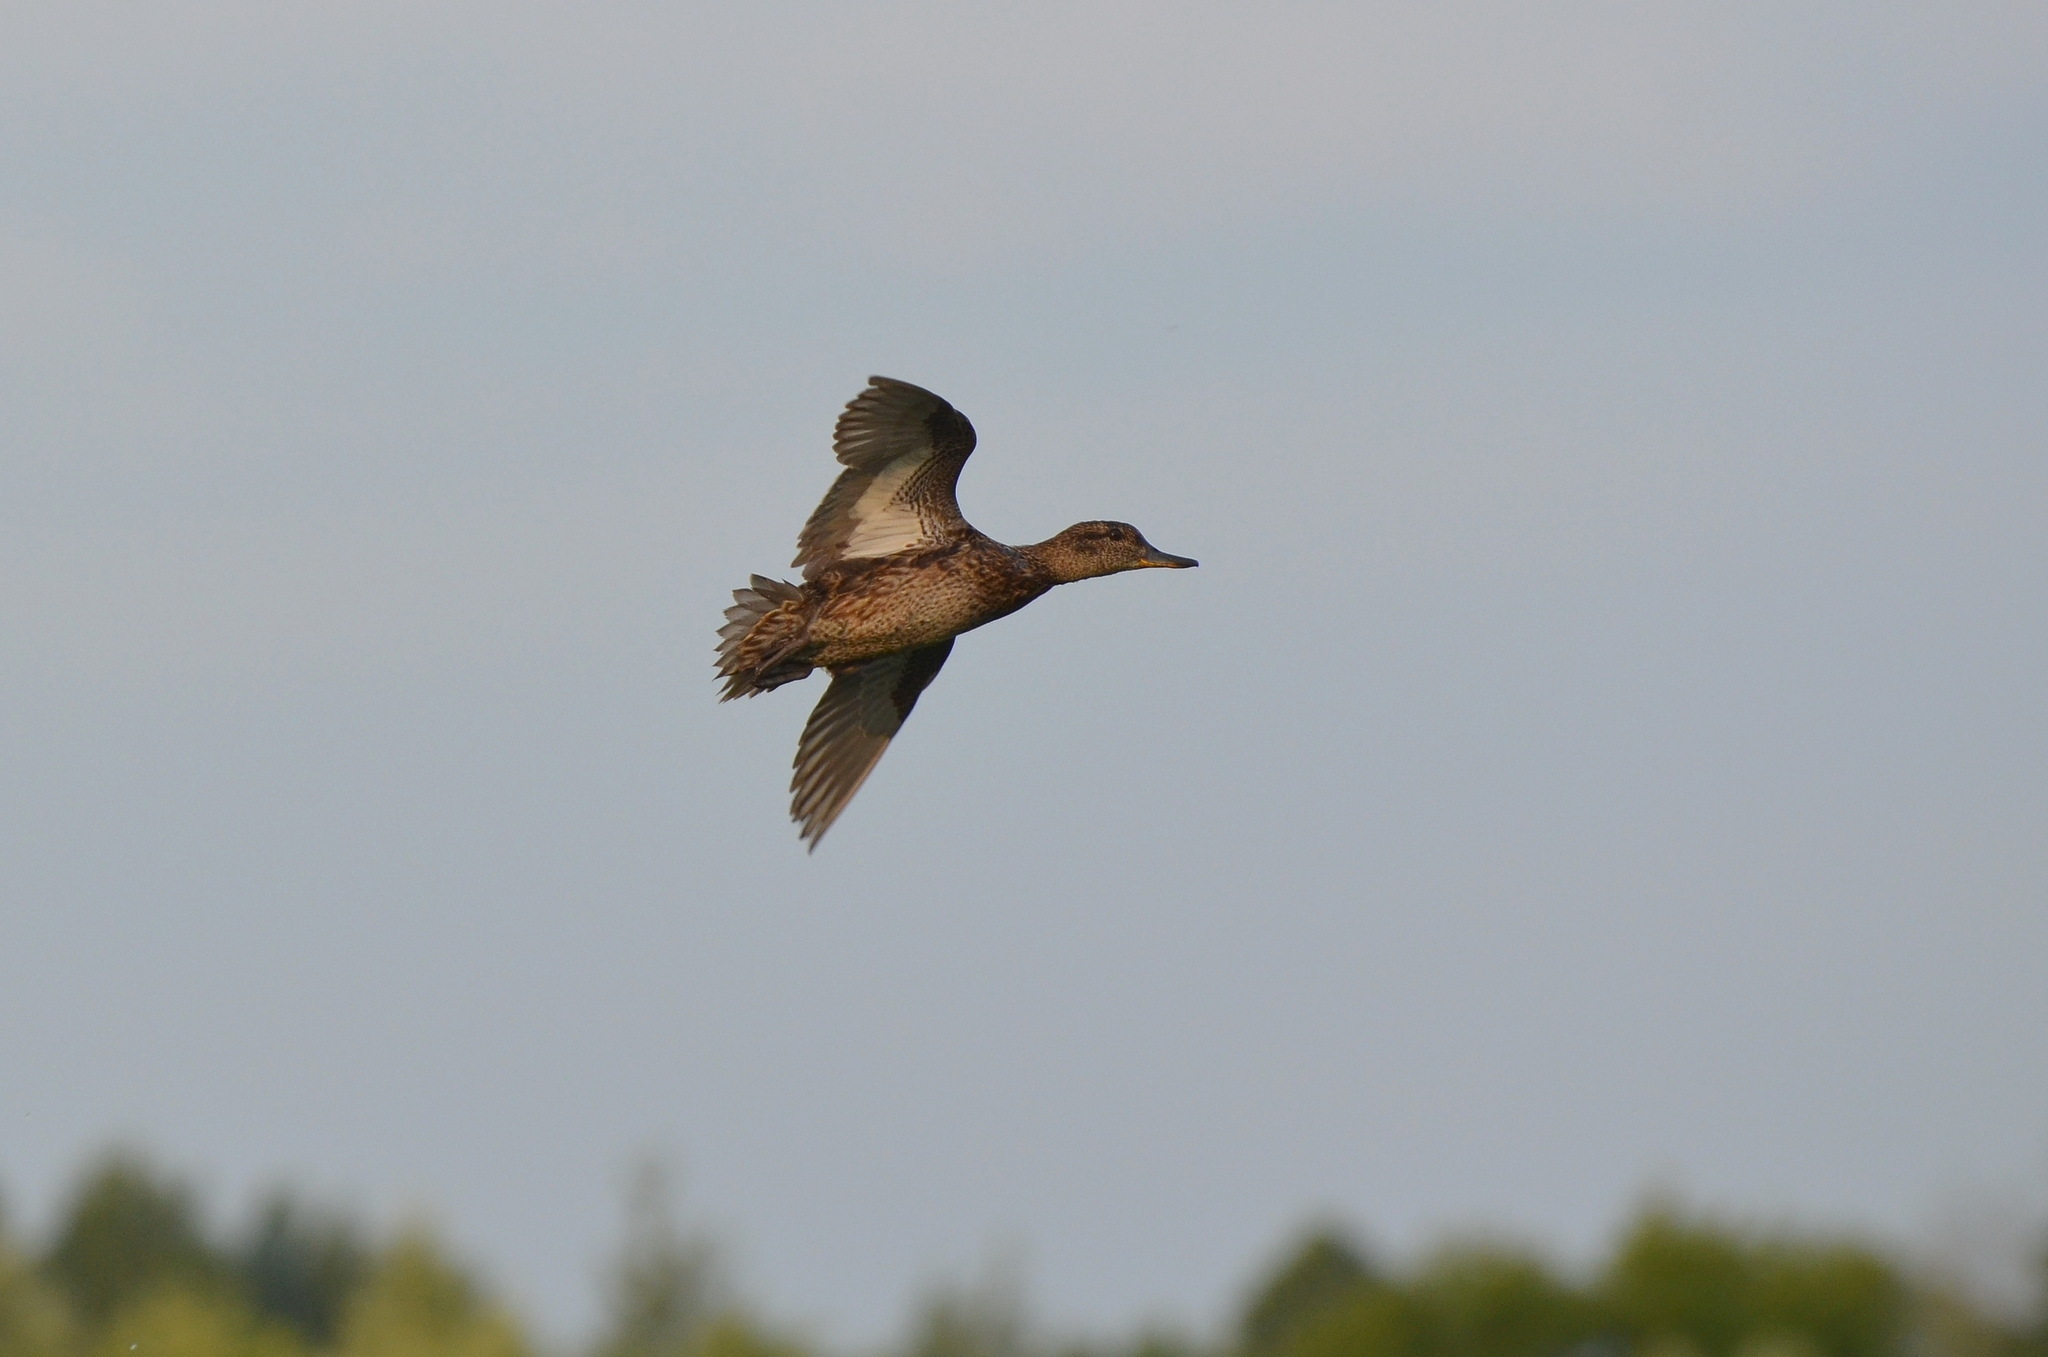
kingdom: Animalia
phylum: Chordata
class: Aves
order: Anseriformes
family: Anatidae
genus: Anas
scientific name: Anas crecca
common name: Eurasian teal
